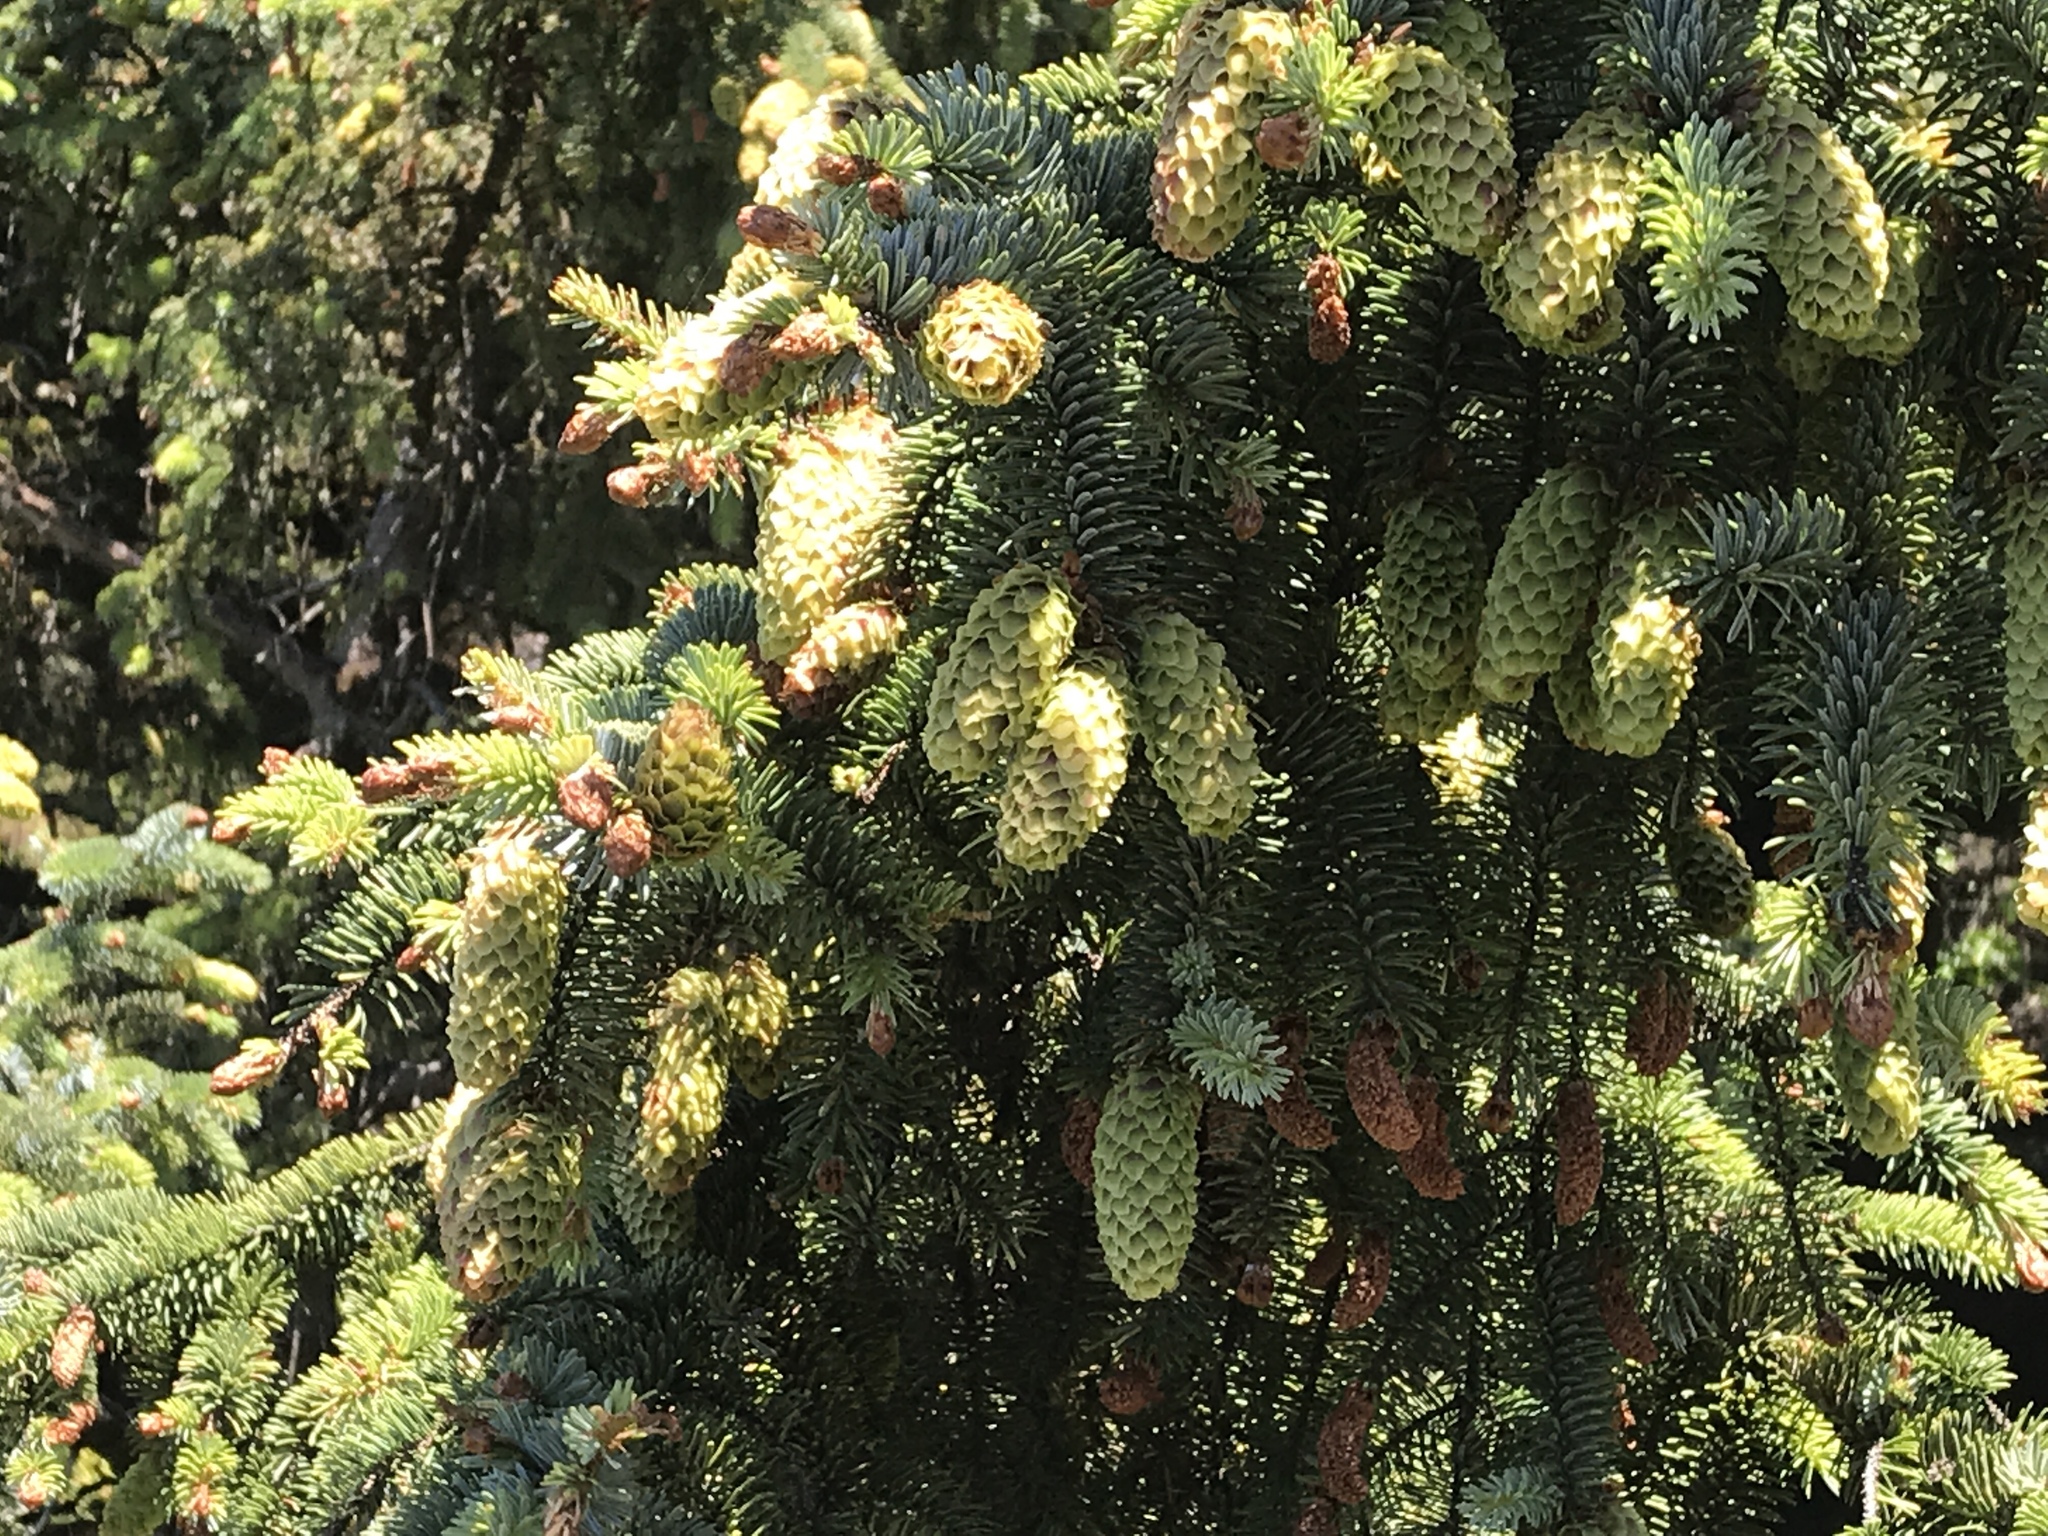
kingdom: Plantae
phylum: Tracheophyta
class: Pinopsida
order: Pinales
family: Pinaceae
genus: Picea
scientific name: Picea sitchensis
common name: Sitka spruce
